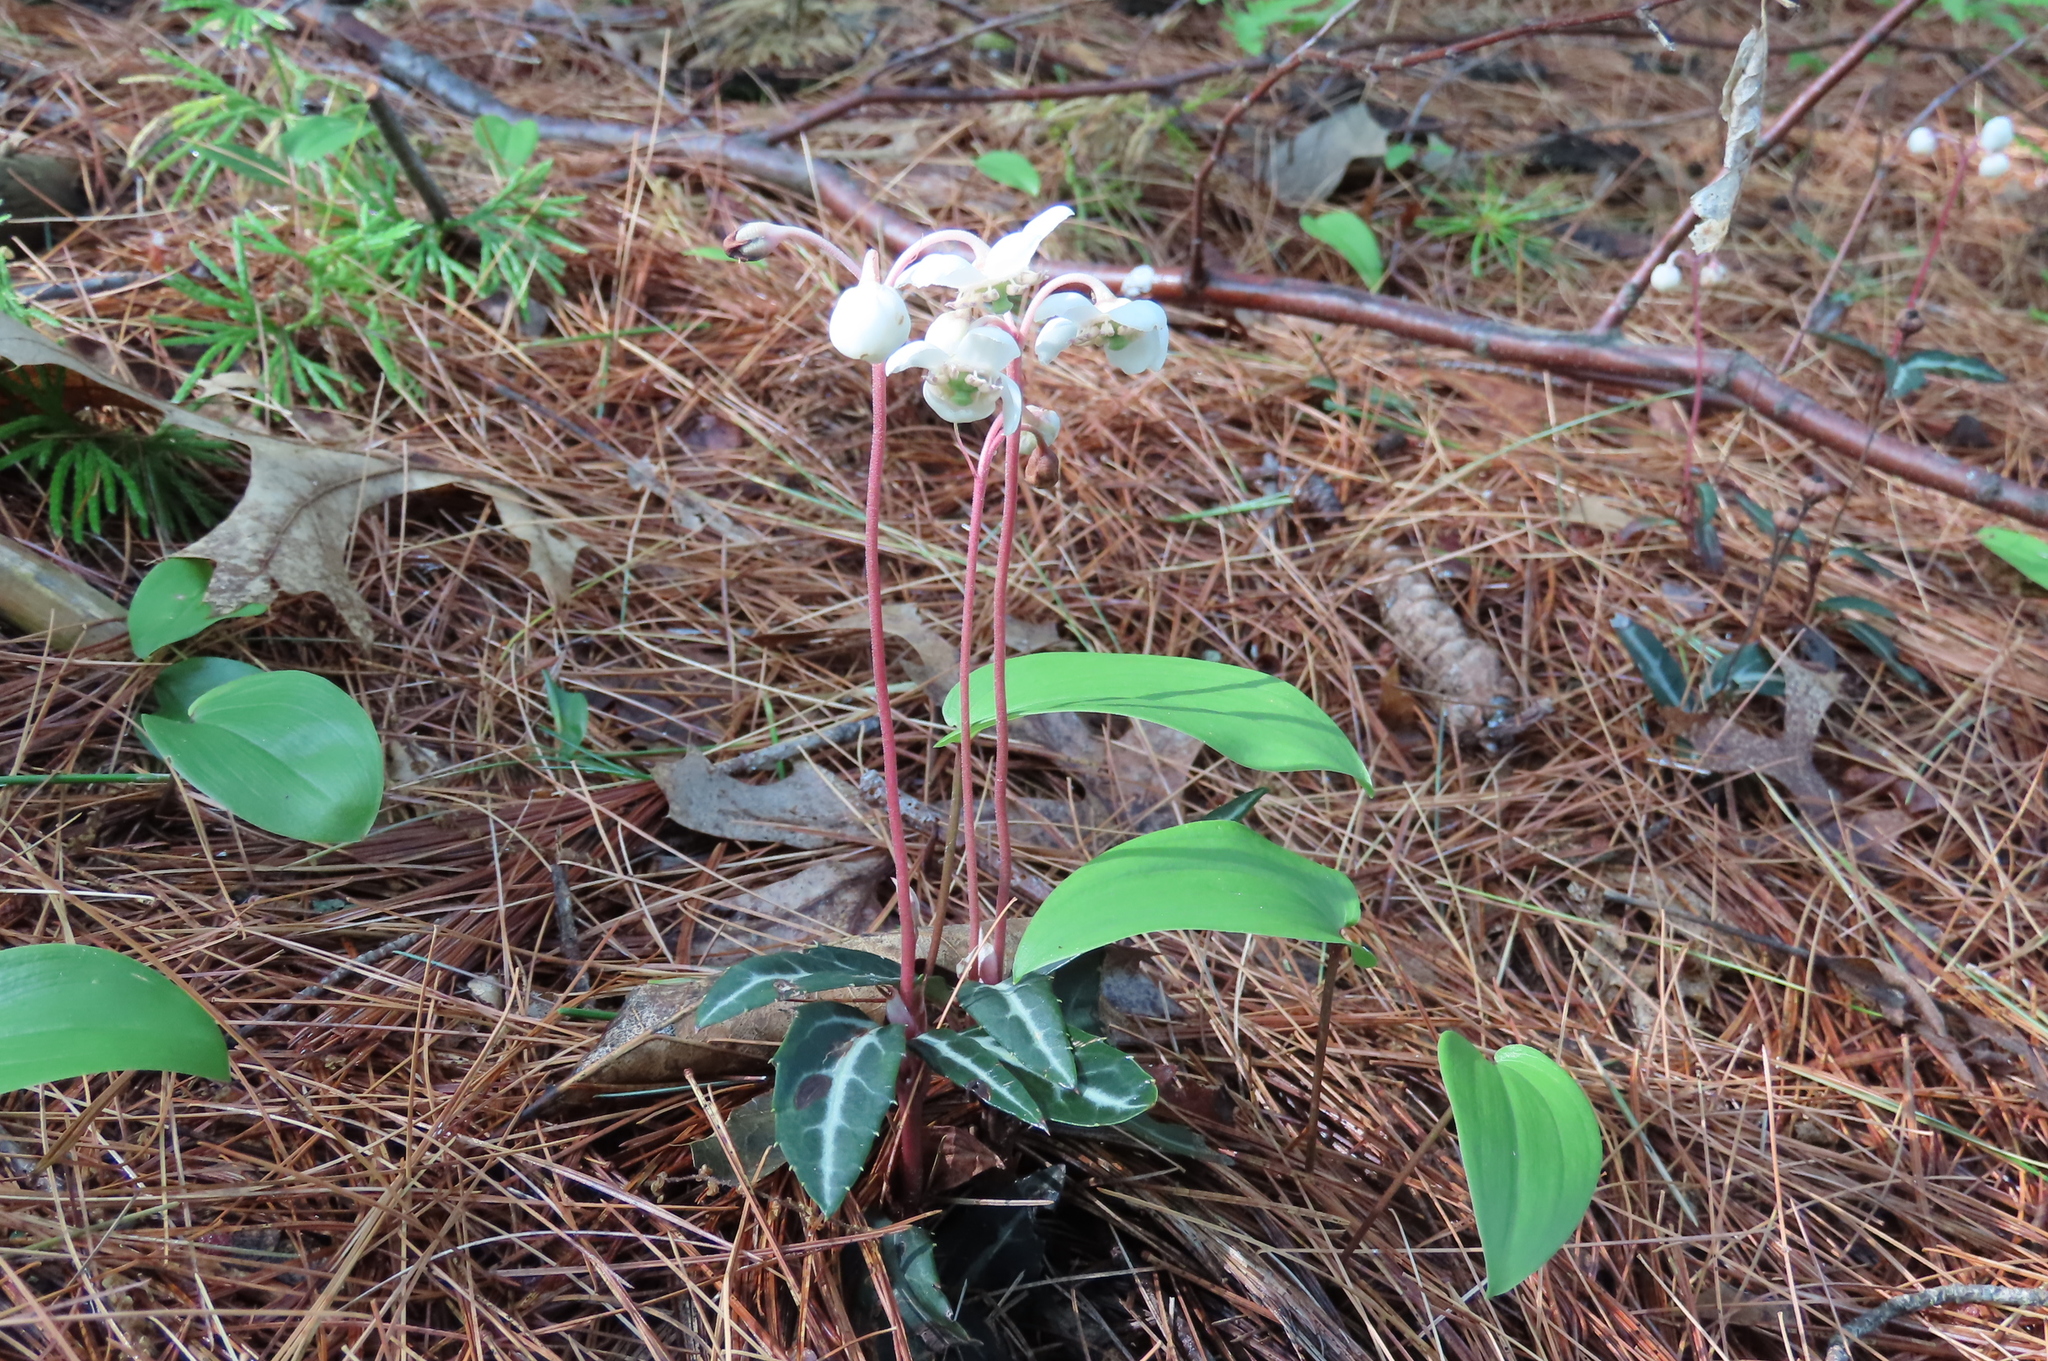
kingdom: Plantae
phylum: Tracheophyta
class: Magnoliopsida
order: Ericales
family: Ericaceae
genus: Chimaphila
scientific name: Chimaphila maculata
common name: Spotted pipsissewa
